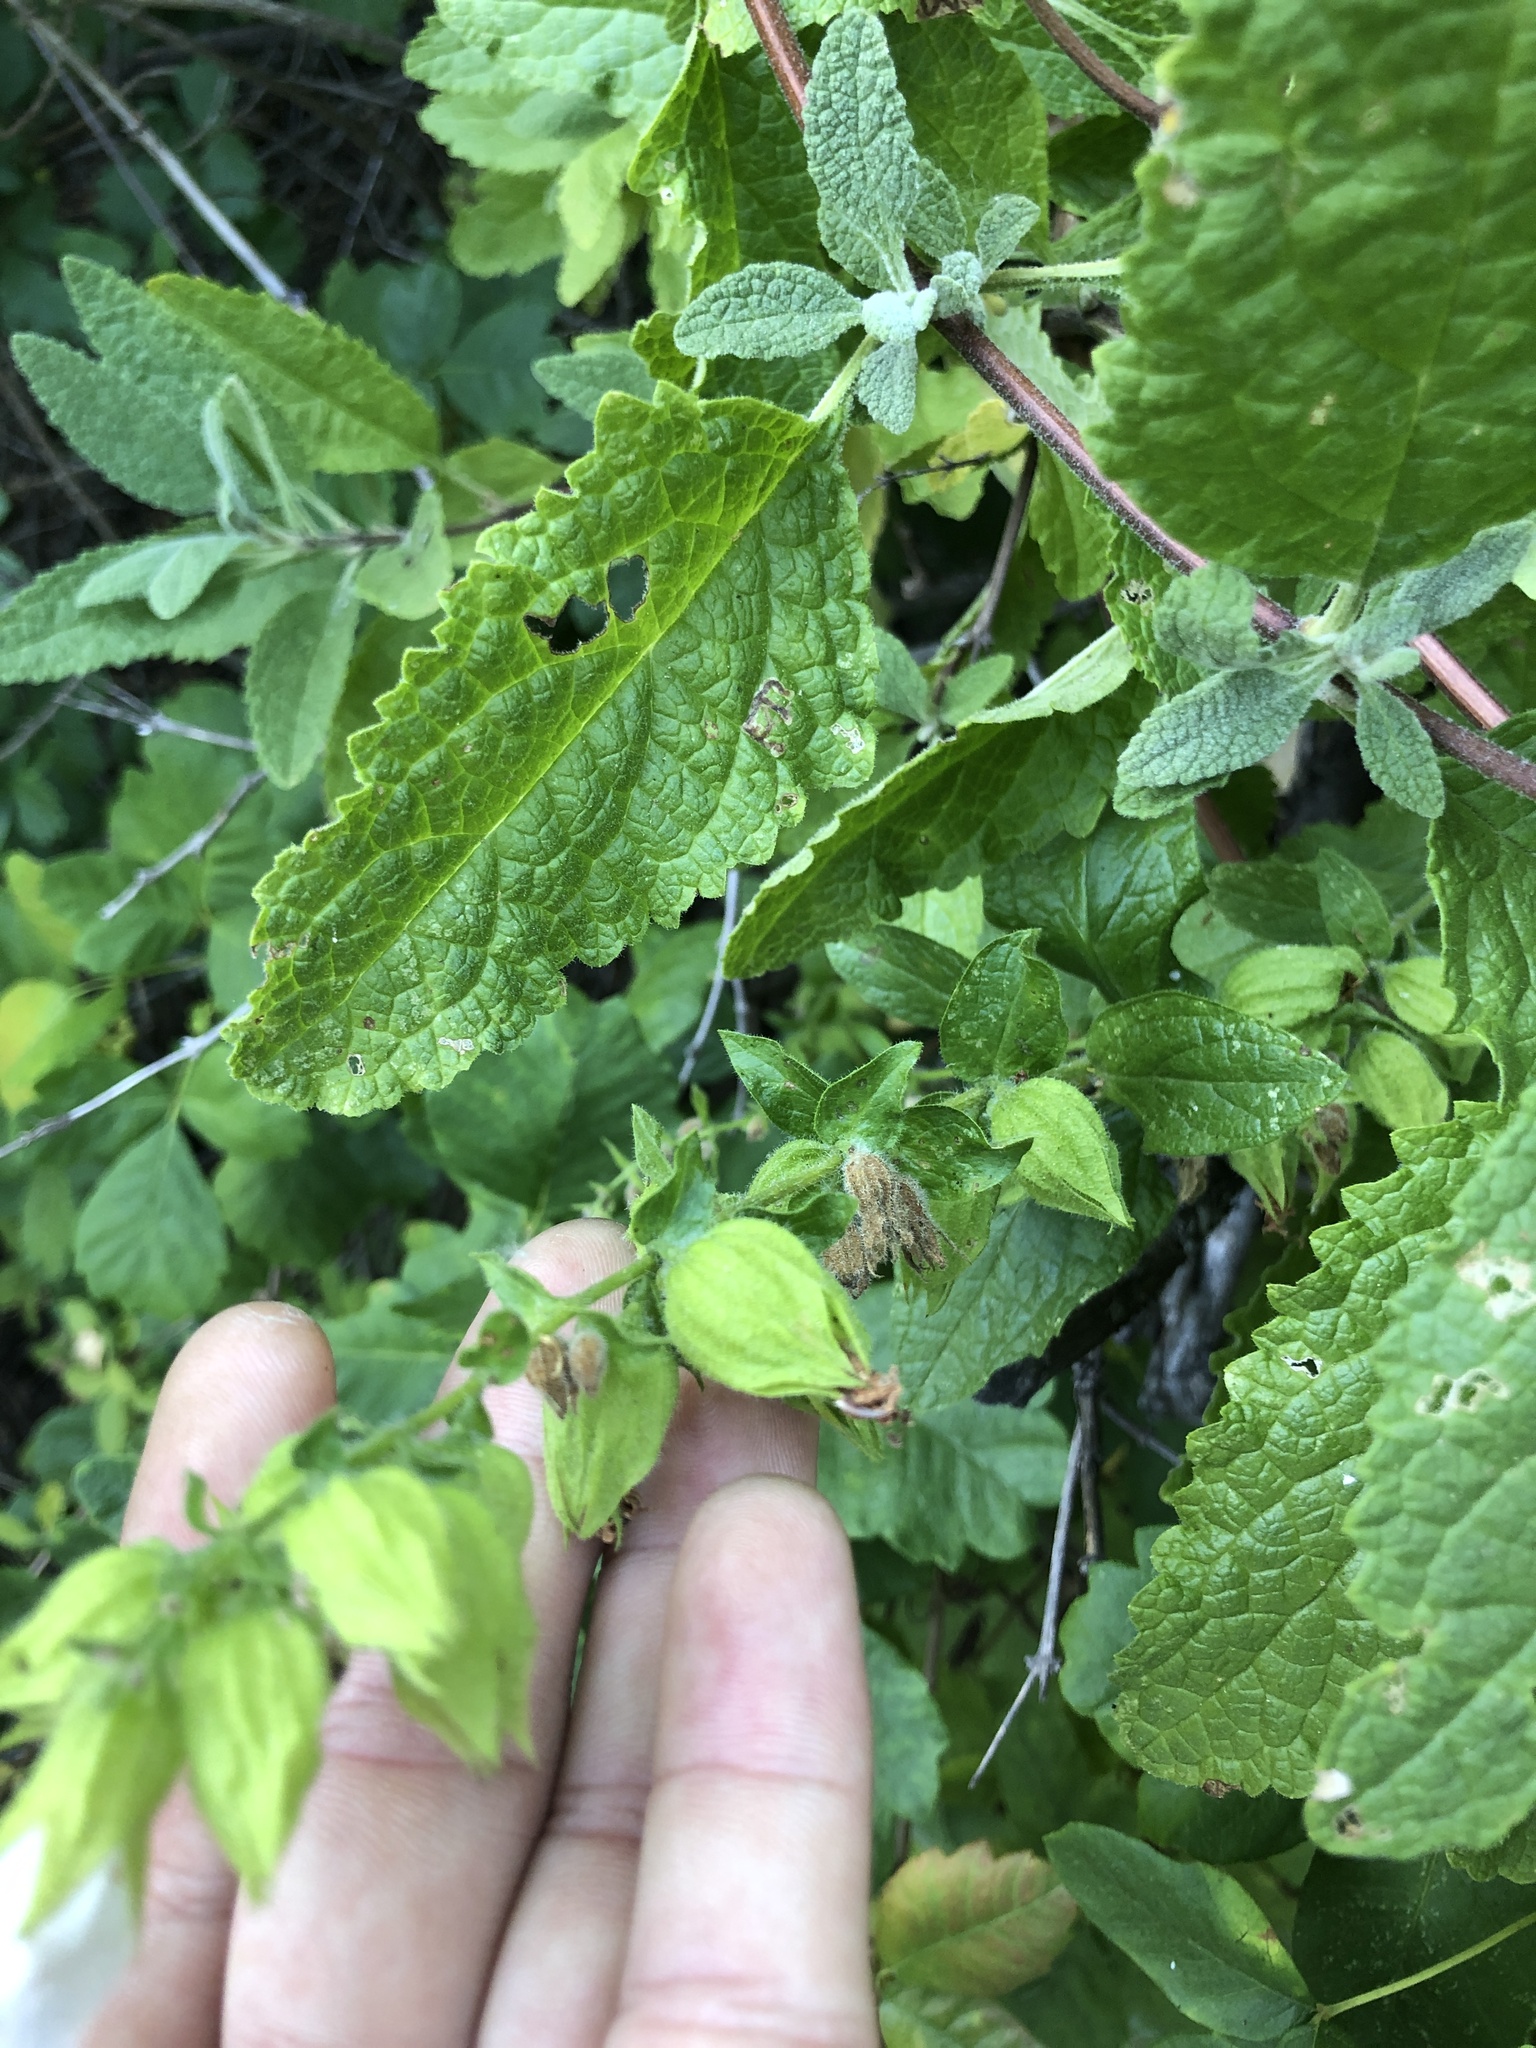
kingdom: Plantae
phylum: Tracheophyta
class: Magnoliopsida
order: Lamiales
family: Lamiaceae
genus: Lepechinia
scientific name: Lepechinia calycina
